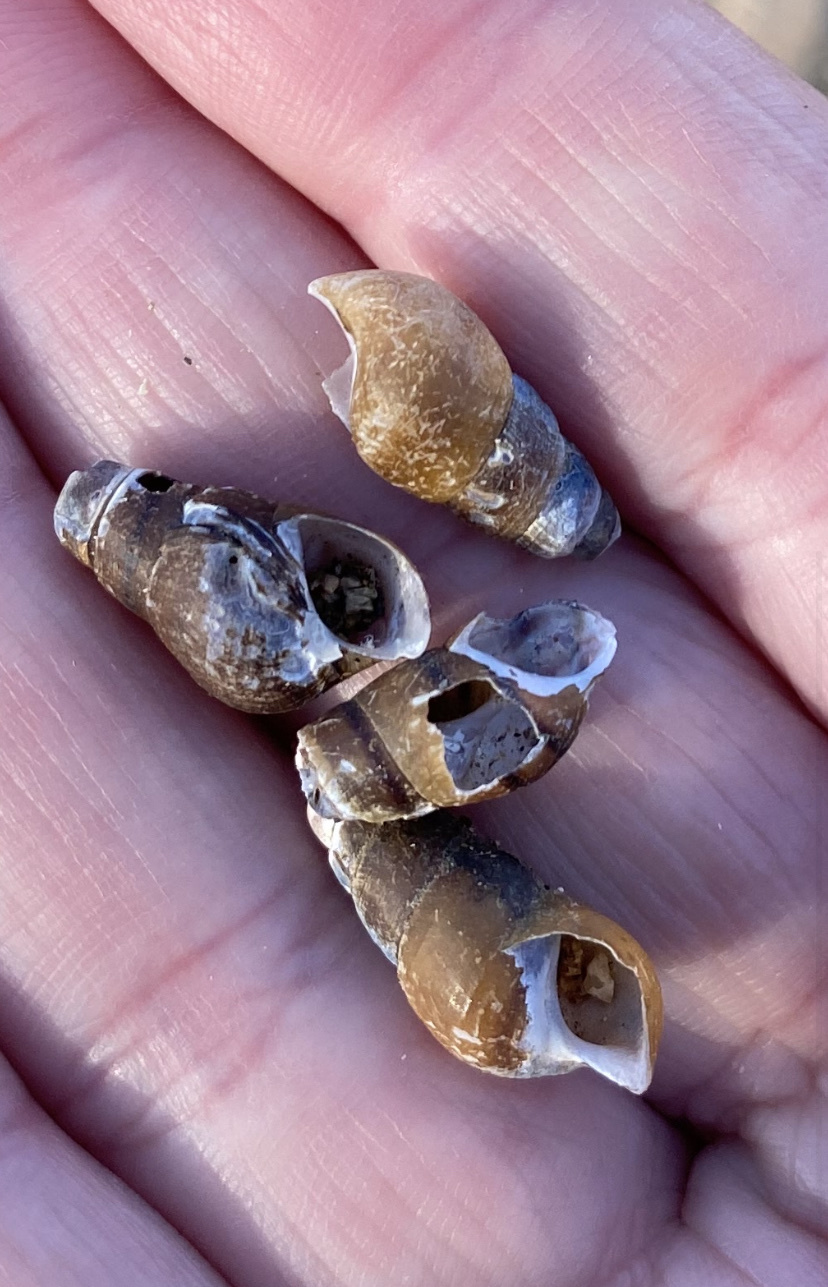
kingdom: Animalia
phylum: Mollusca
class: Gastropoda
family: Pleuroceridae
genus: Elimia
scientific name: Elimia virginica
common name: Piedmont elimia
